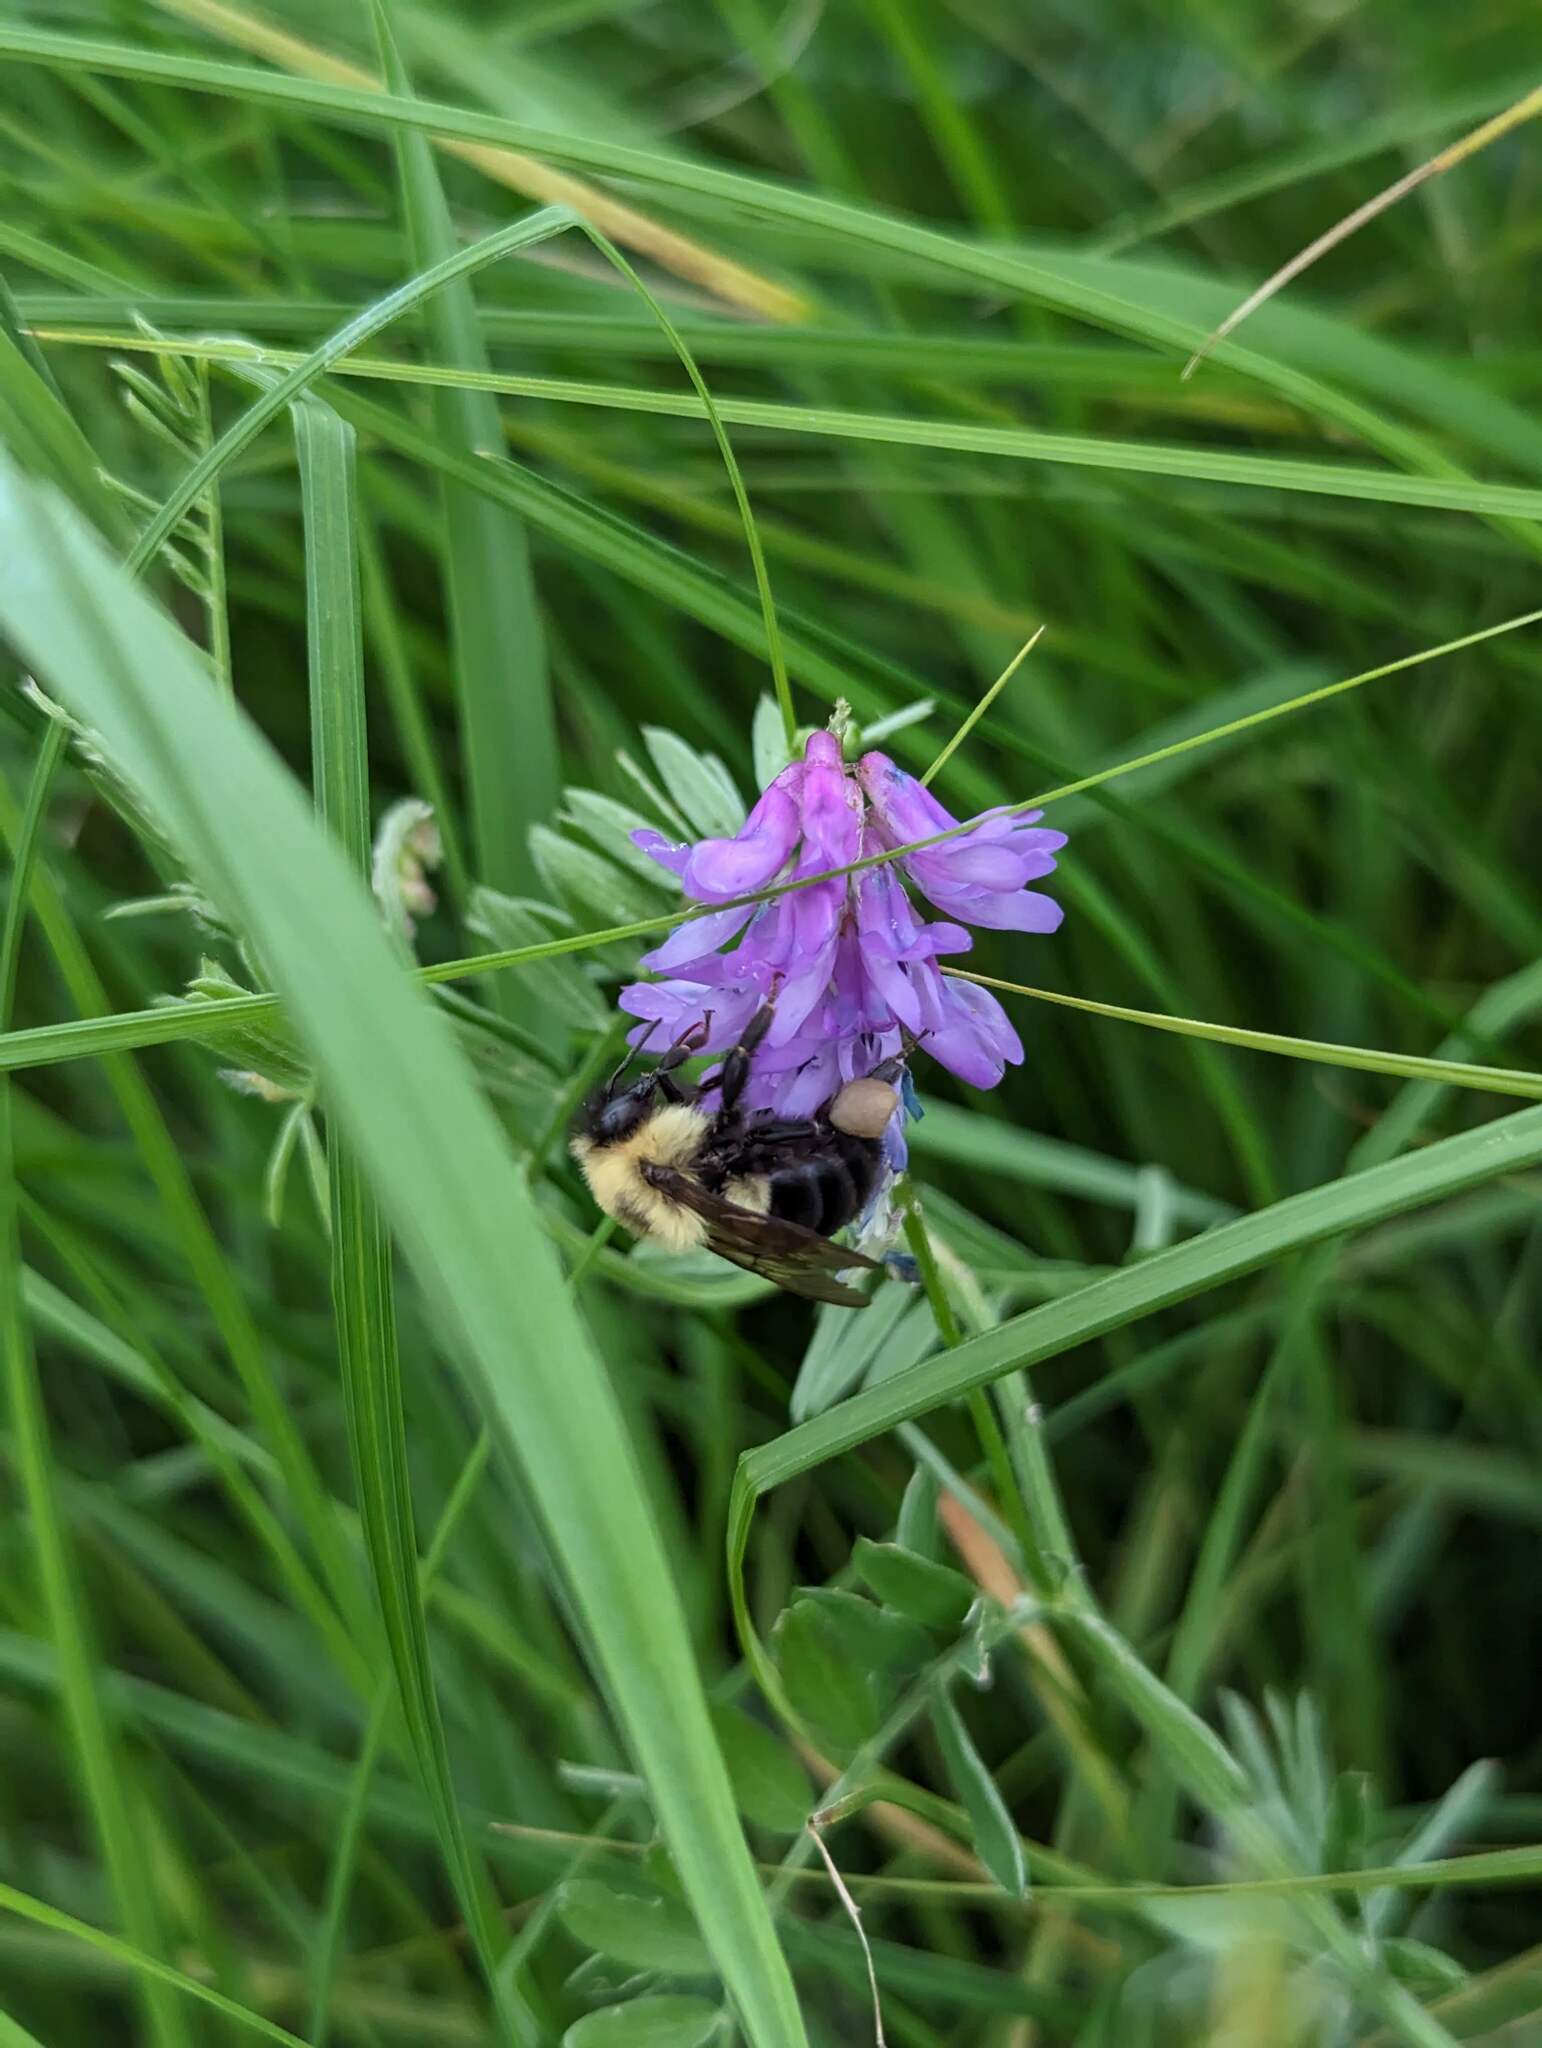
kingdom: Animalia
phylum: Arthropoda
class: Insecta
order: Hymenoptera
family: Apidae
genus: Bombus
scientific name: Bombus bimaculatus
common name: Two-spotted bumble bee
